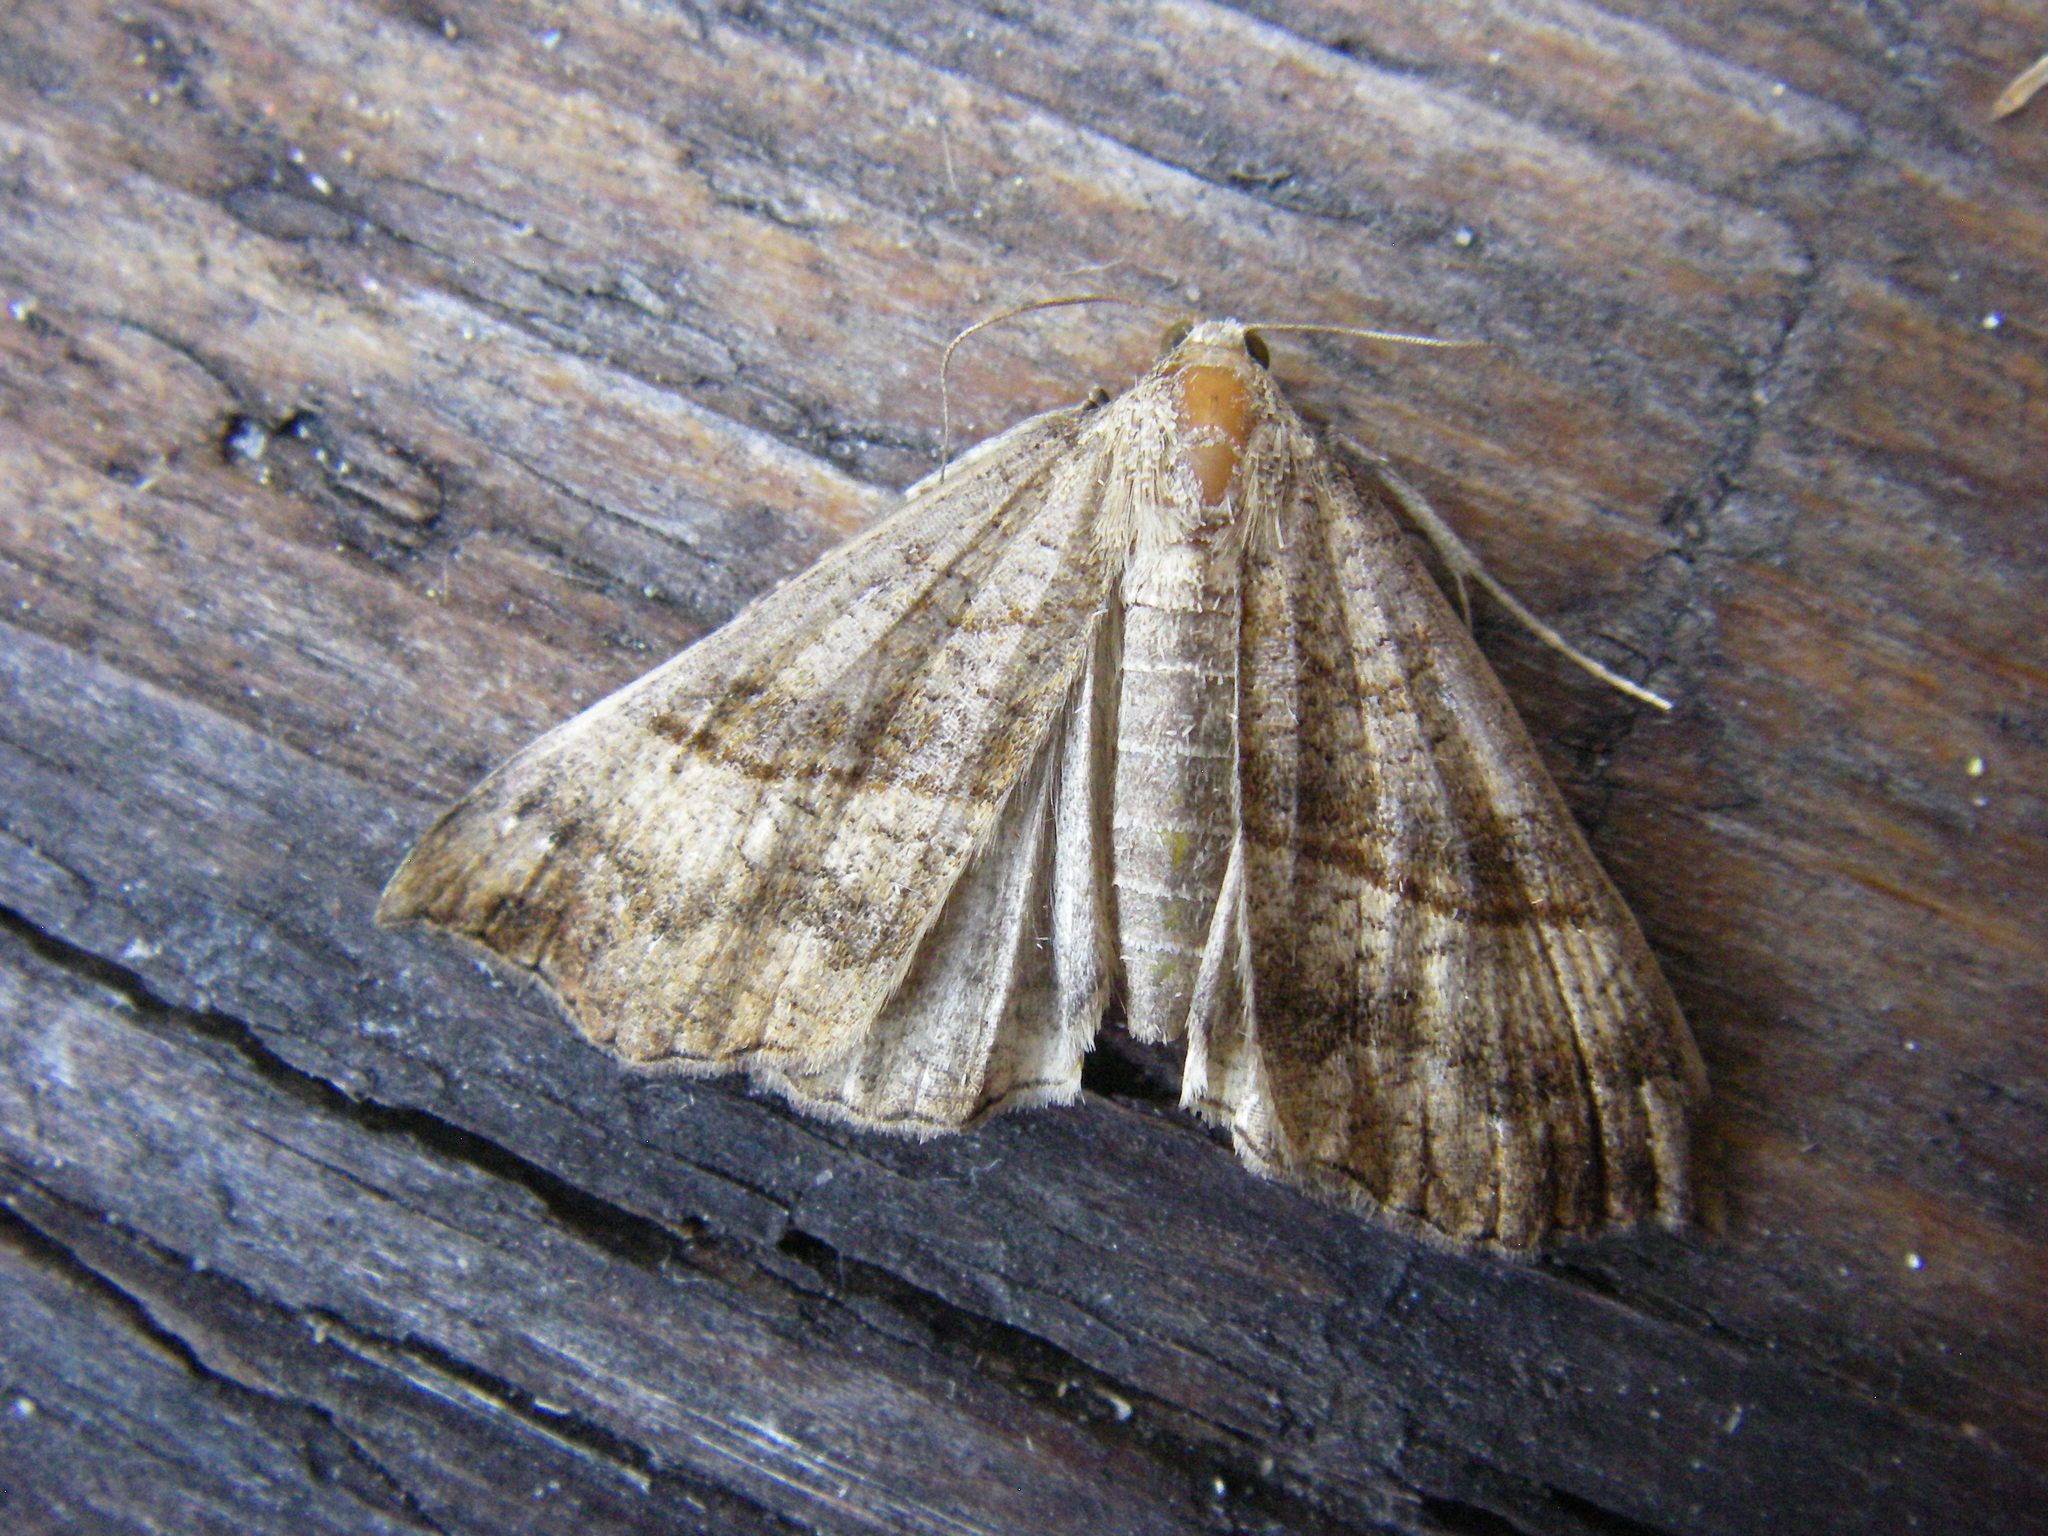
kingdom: Animalia
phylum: Arthropoda
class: Insecta
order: Lepidoptera
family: Erebidae
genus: Hypena
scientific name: Hypena proboscidalis
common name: Snout
